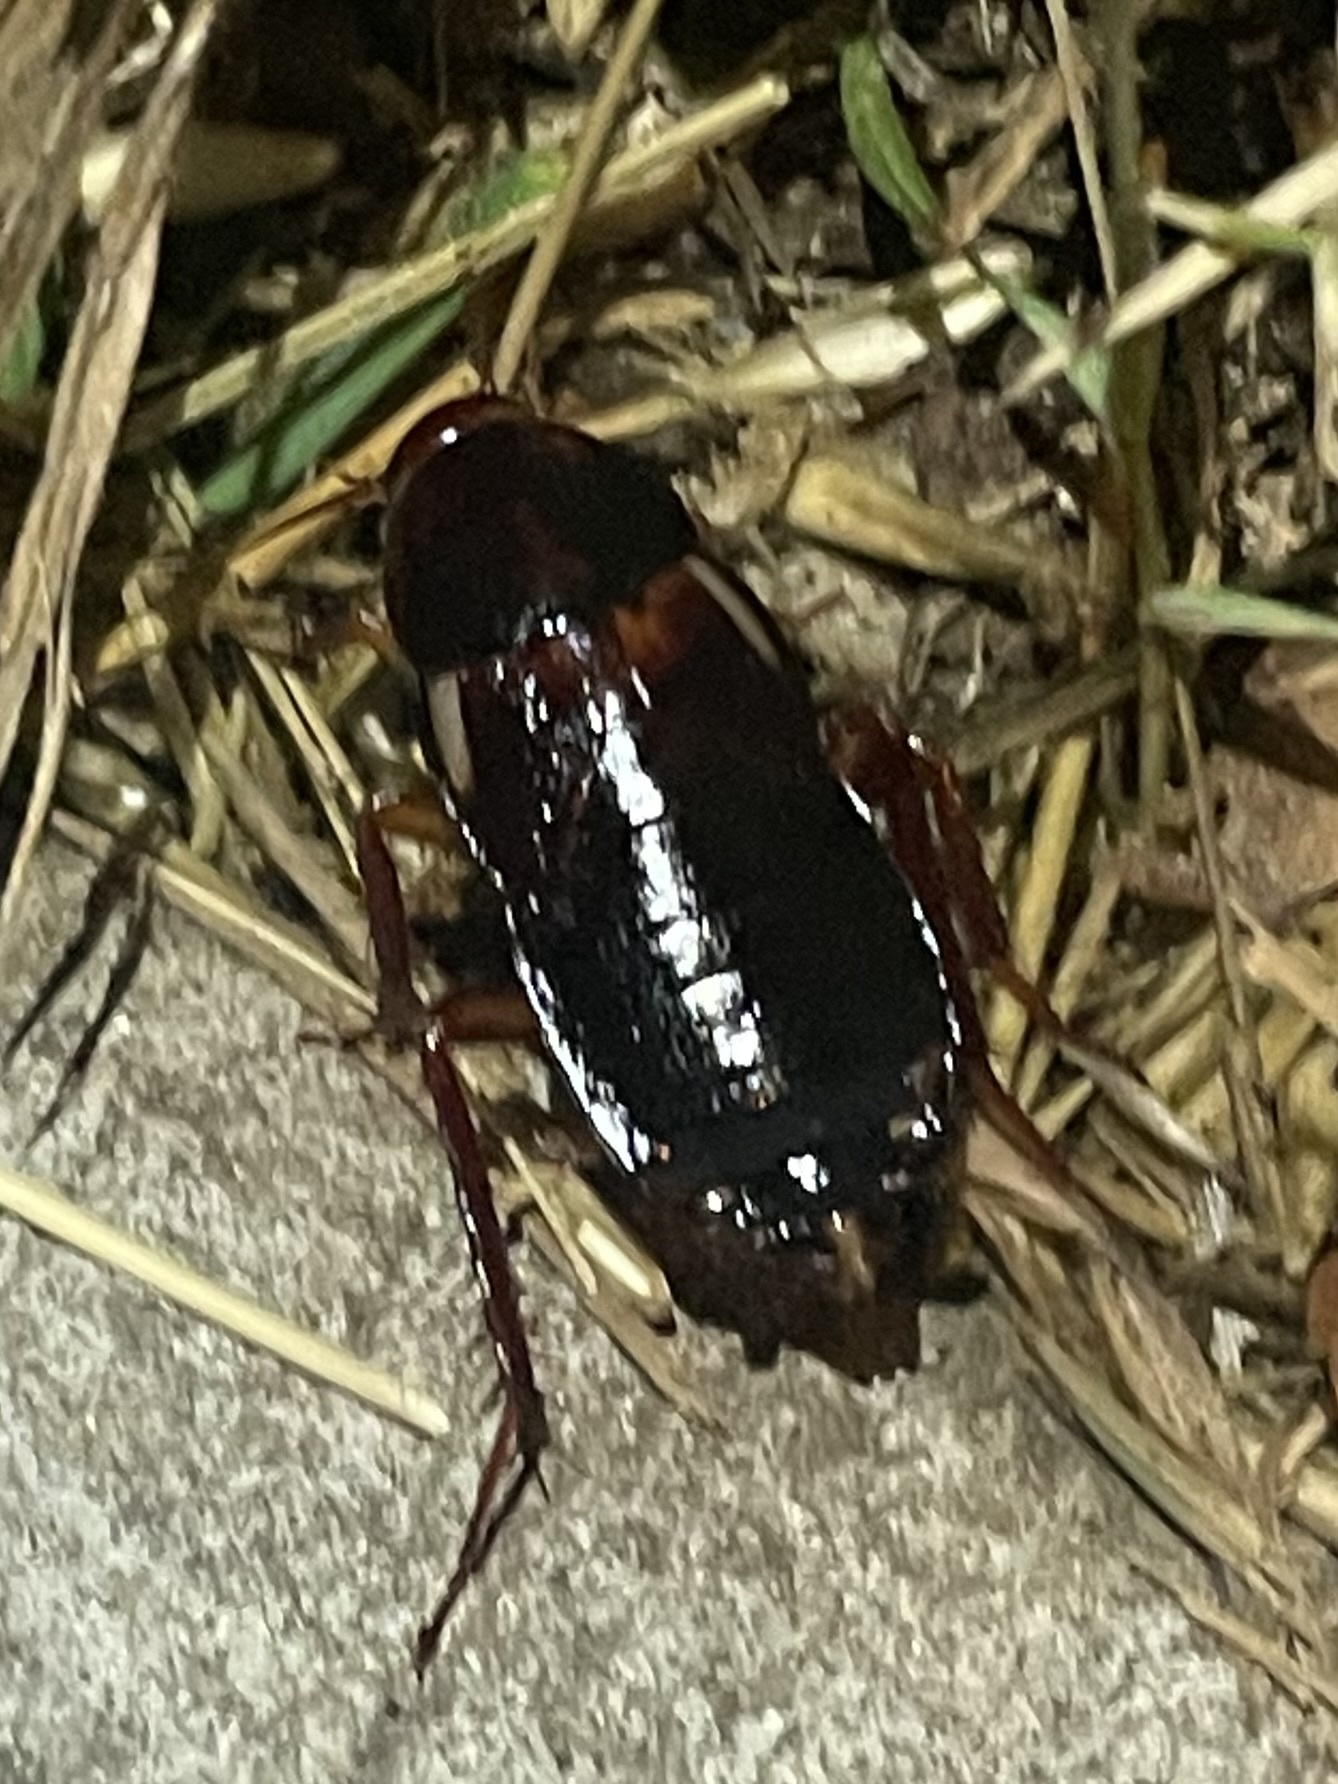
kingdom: Animalia
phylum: Arthropoda
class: Insecta
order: Blattodea
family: Blattidae
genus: Periplaneta
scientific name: Periplaneta lateralis
